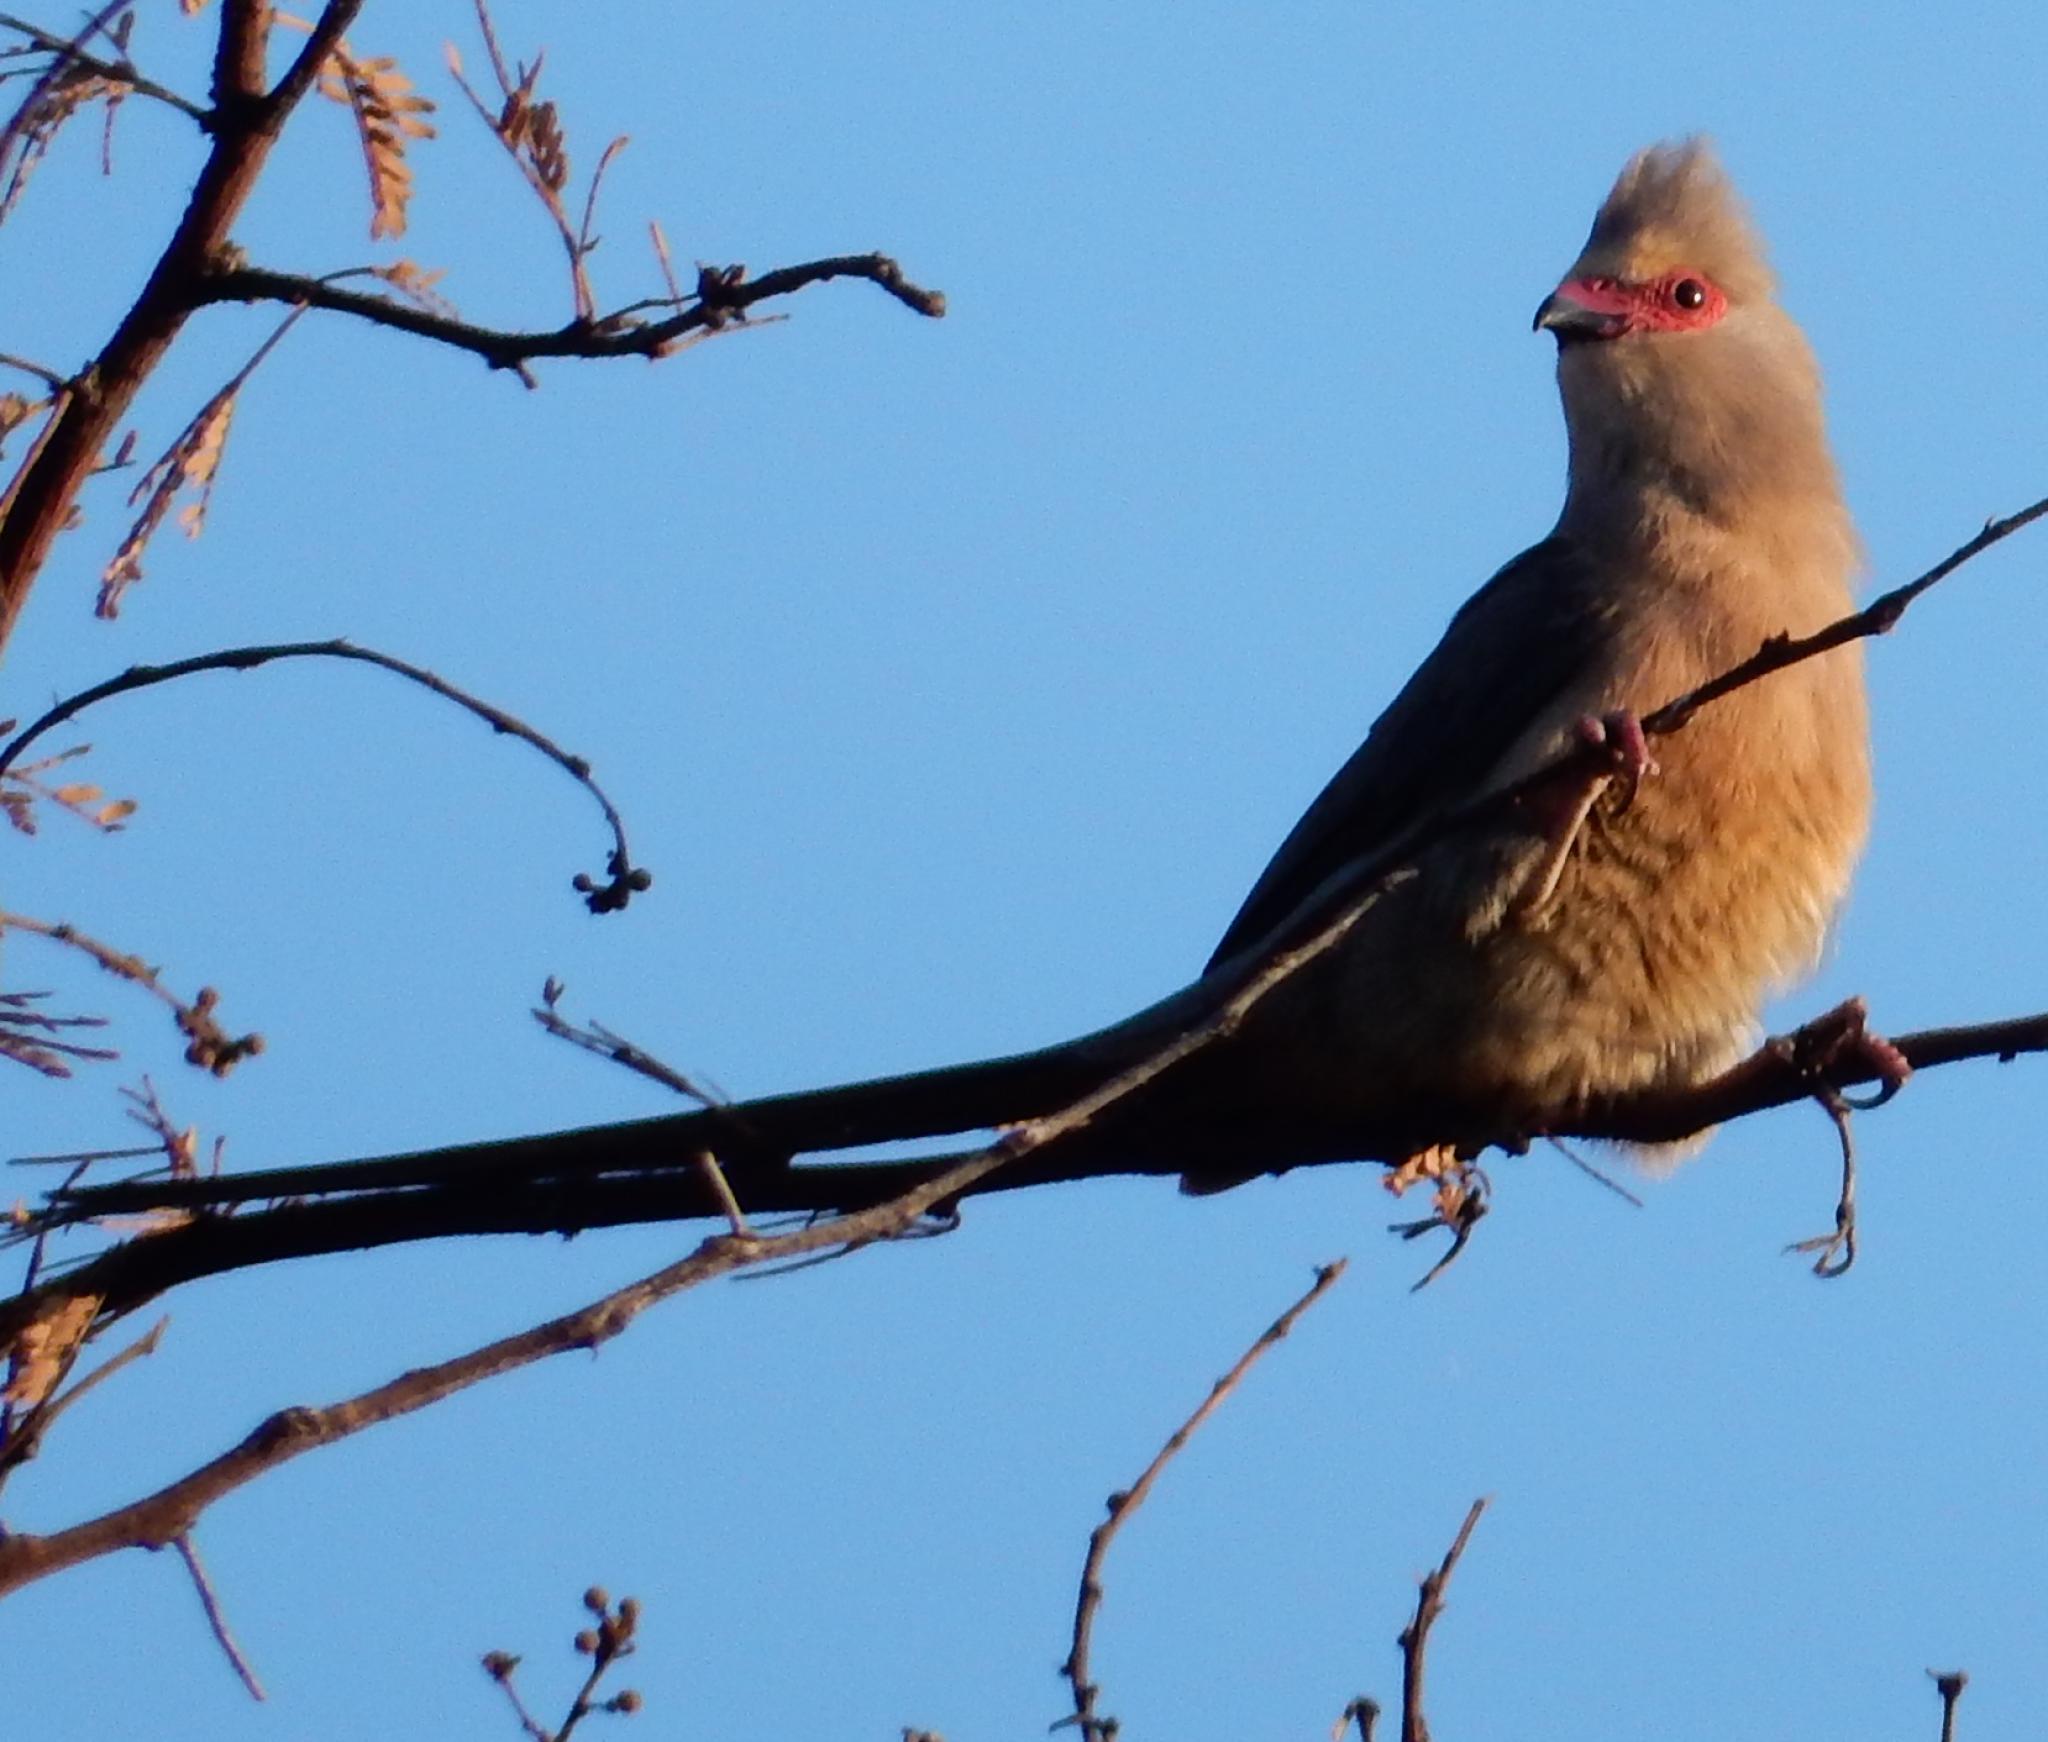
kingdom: Animalia
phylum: Chordata
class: Aves
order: Coliiformes
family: Coliidae
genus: Urocolius
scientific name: Urocolius indicus
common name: Red-faced mousebird
